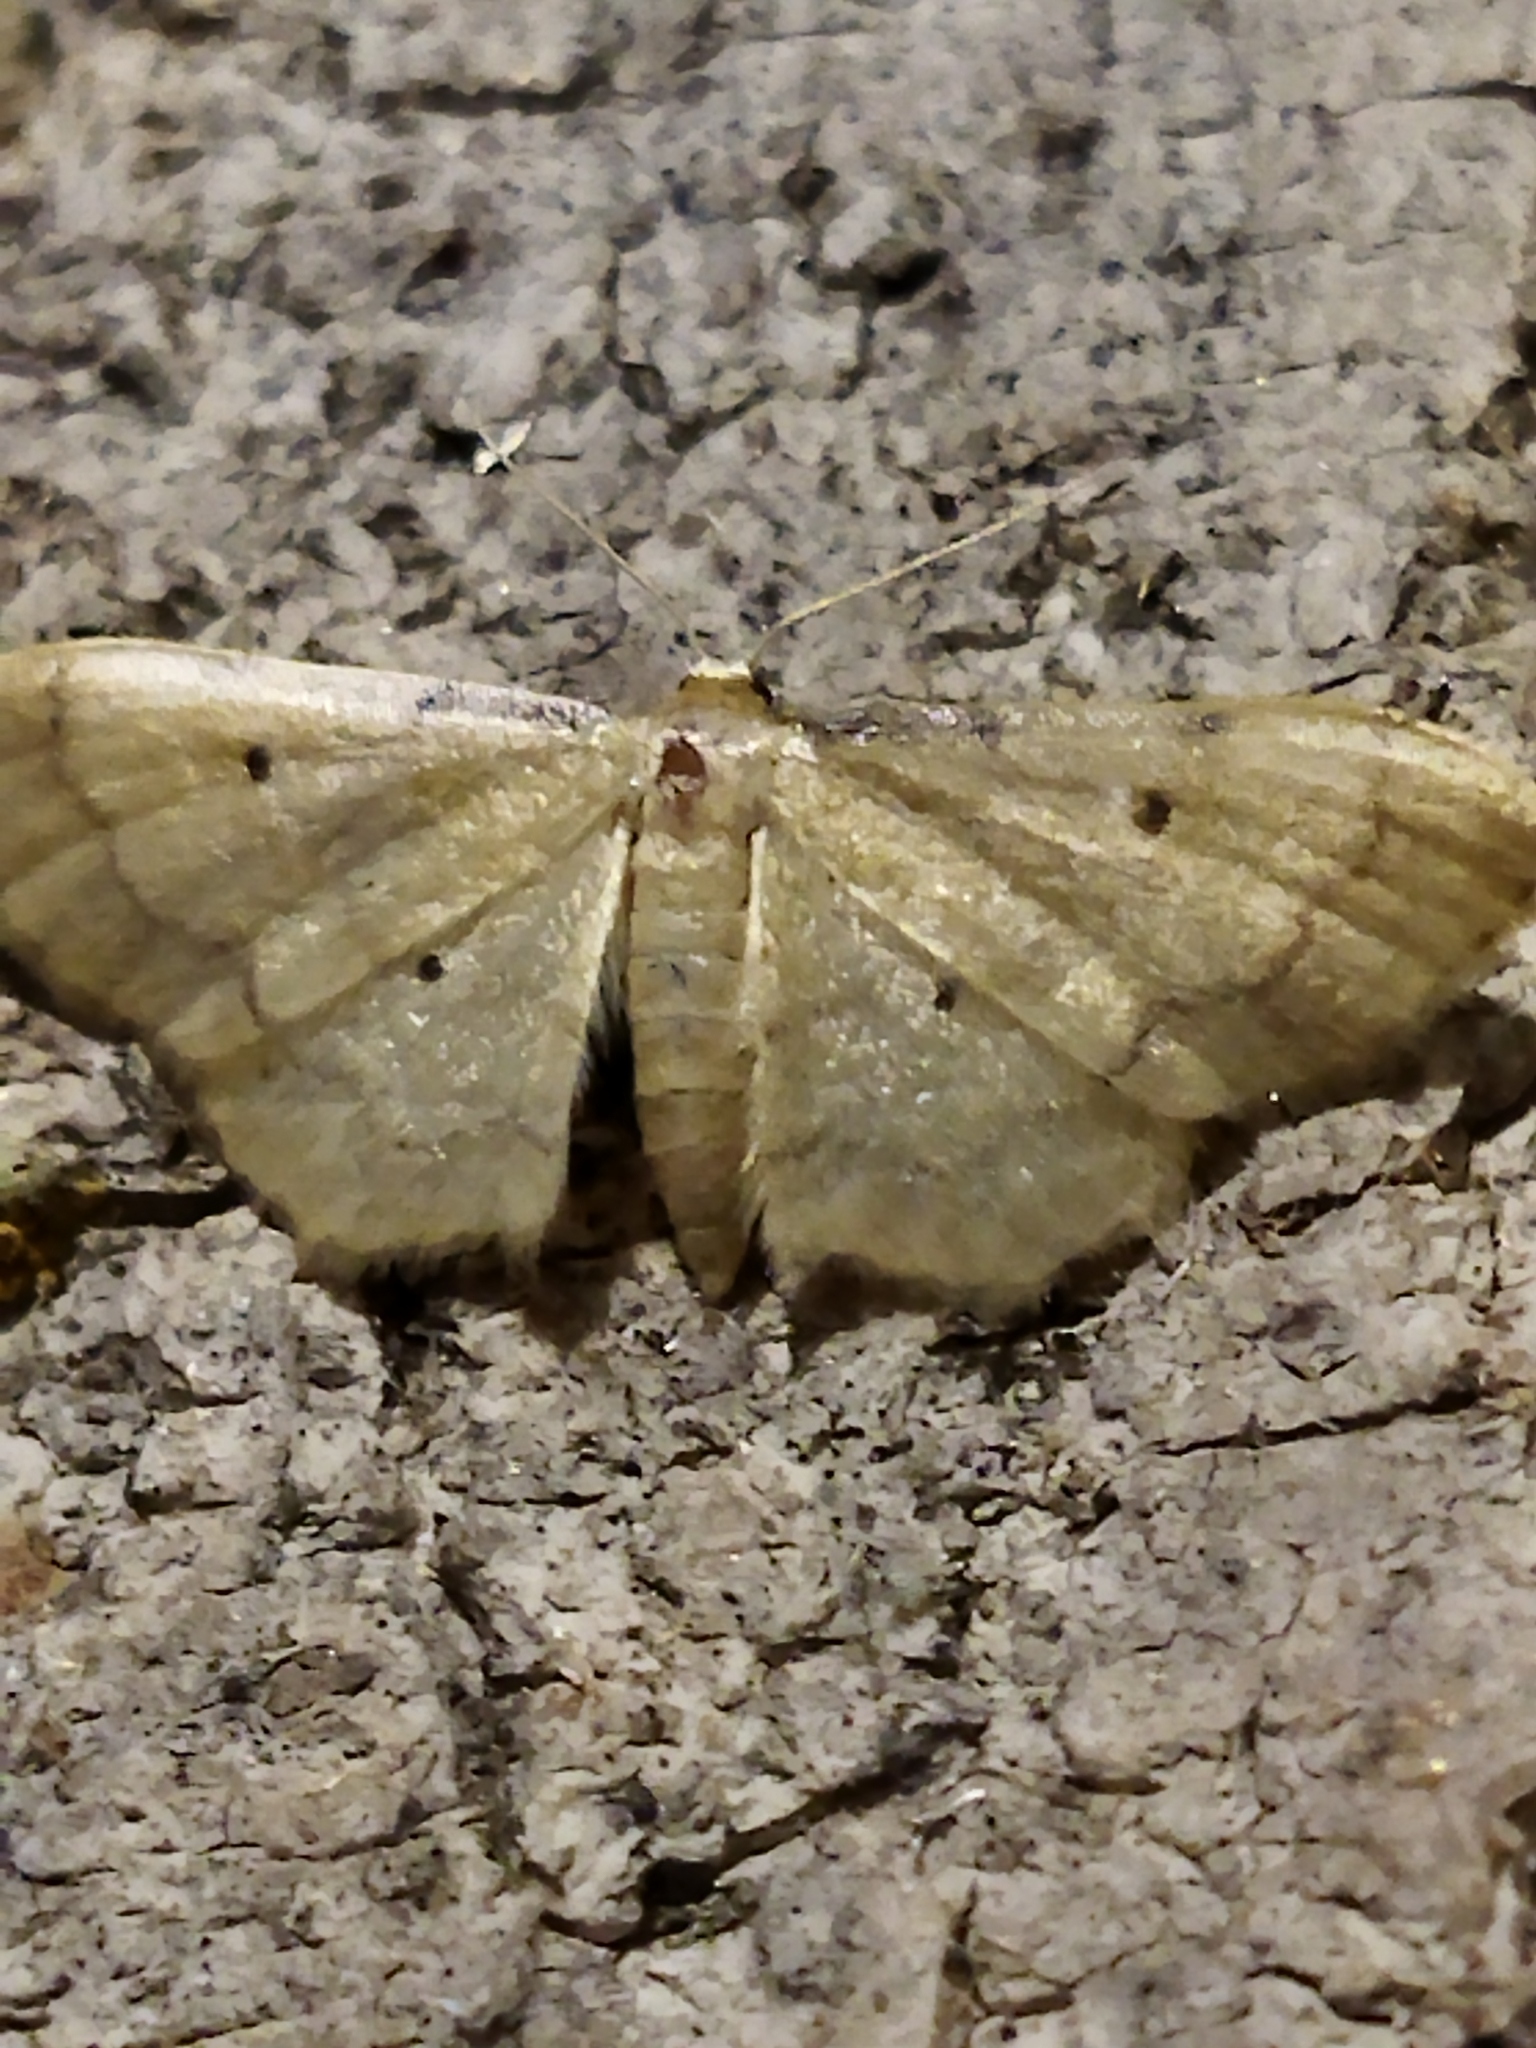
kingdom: Animalia
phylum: Arthropoda
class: Insecta
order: Lepidoptera
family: Geometridae
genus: Idaea
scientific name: Idaea politaria
